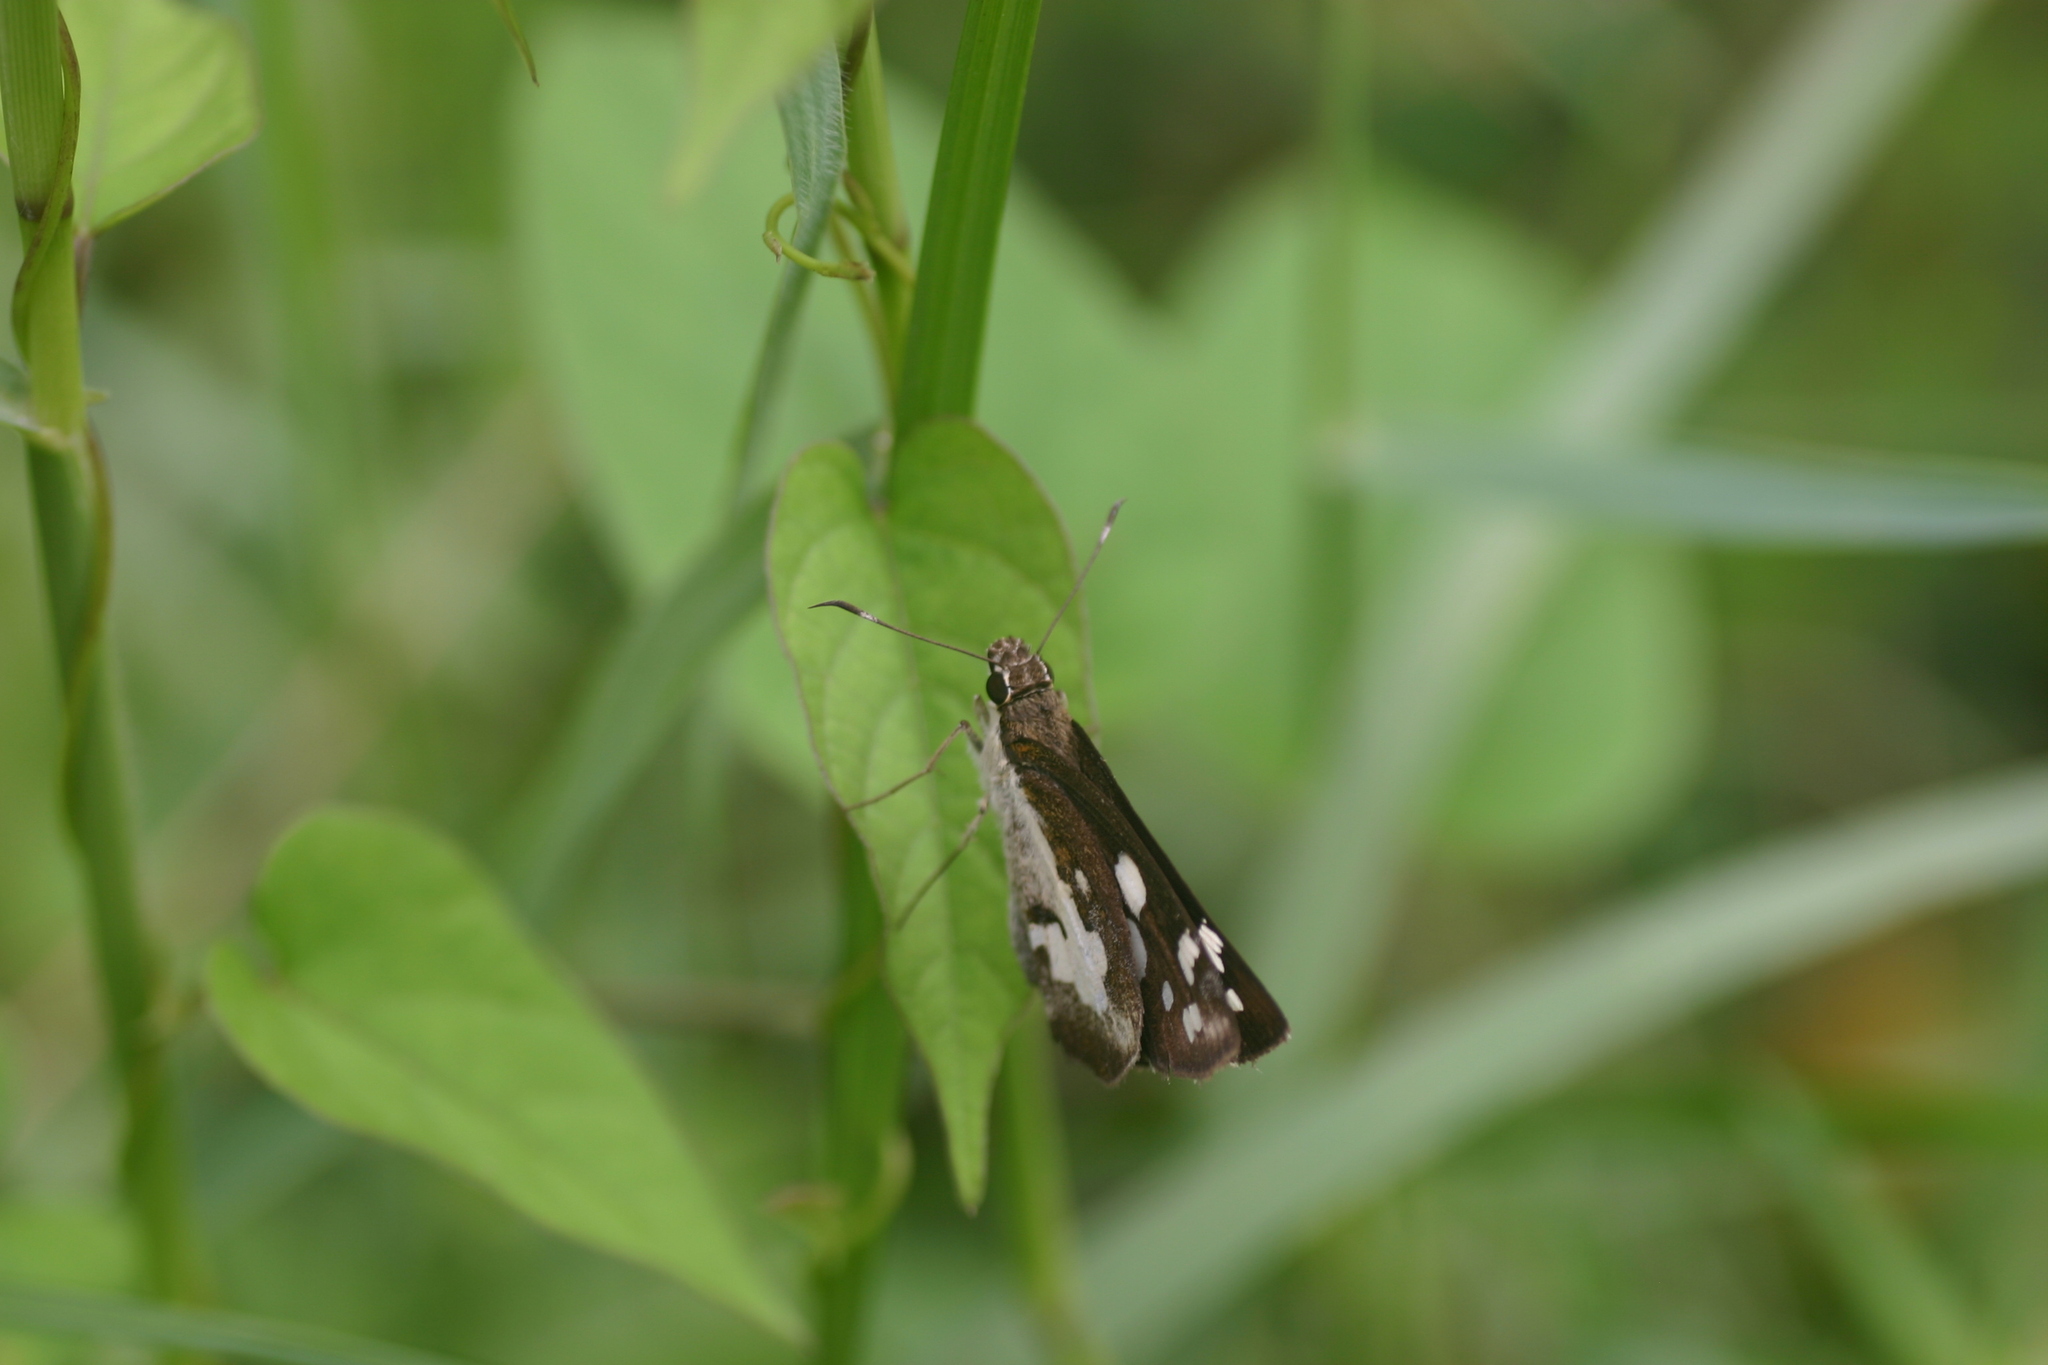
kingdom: Animalia
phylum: Arthropoda
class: Insecta
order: Lepidoptera
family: Hesperiidae
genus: Udaspes
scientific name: Udaspes folus
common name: Grass demon
